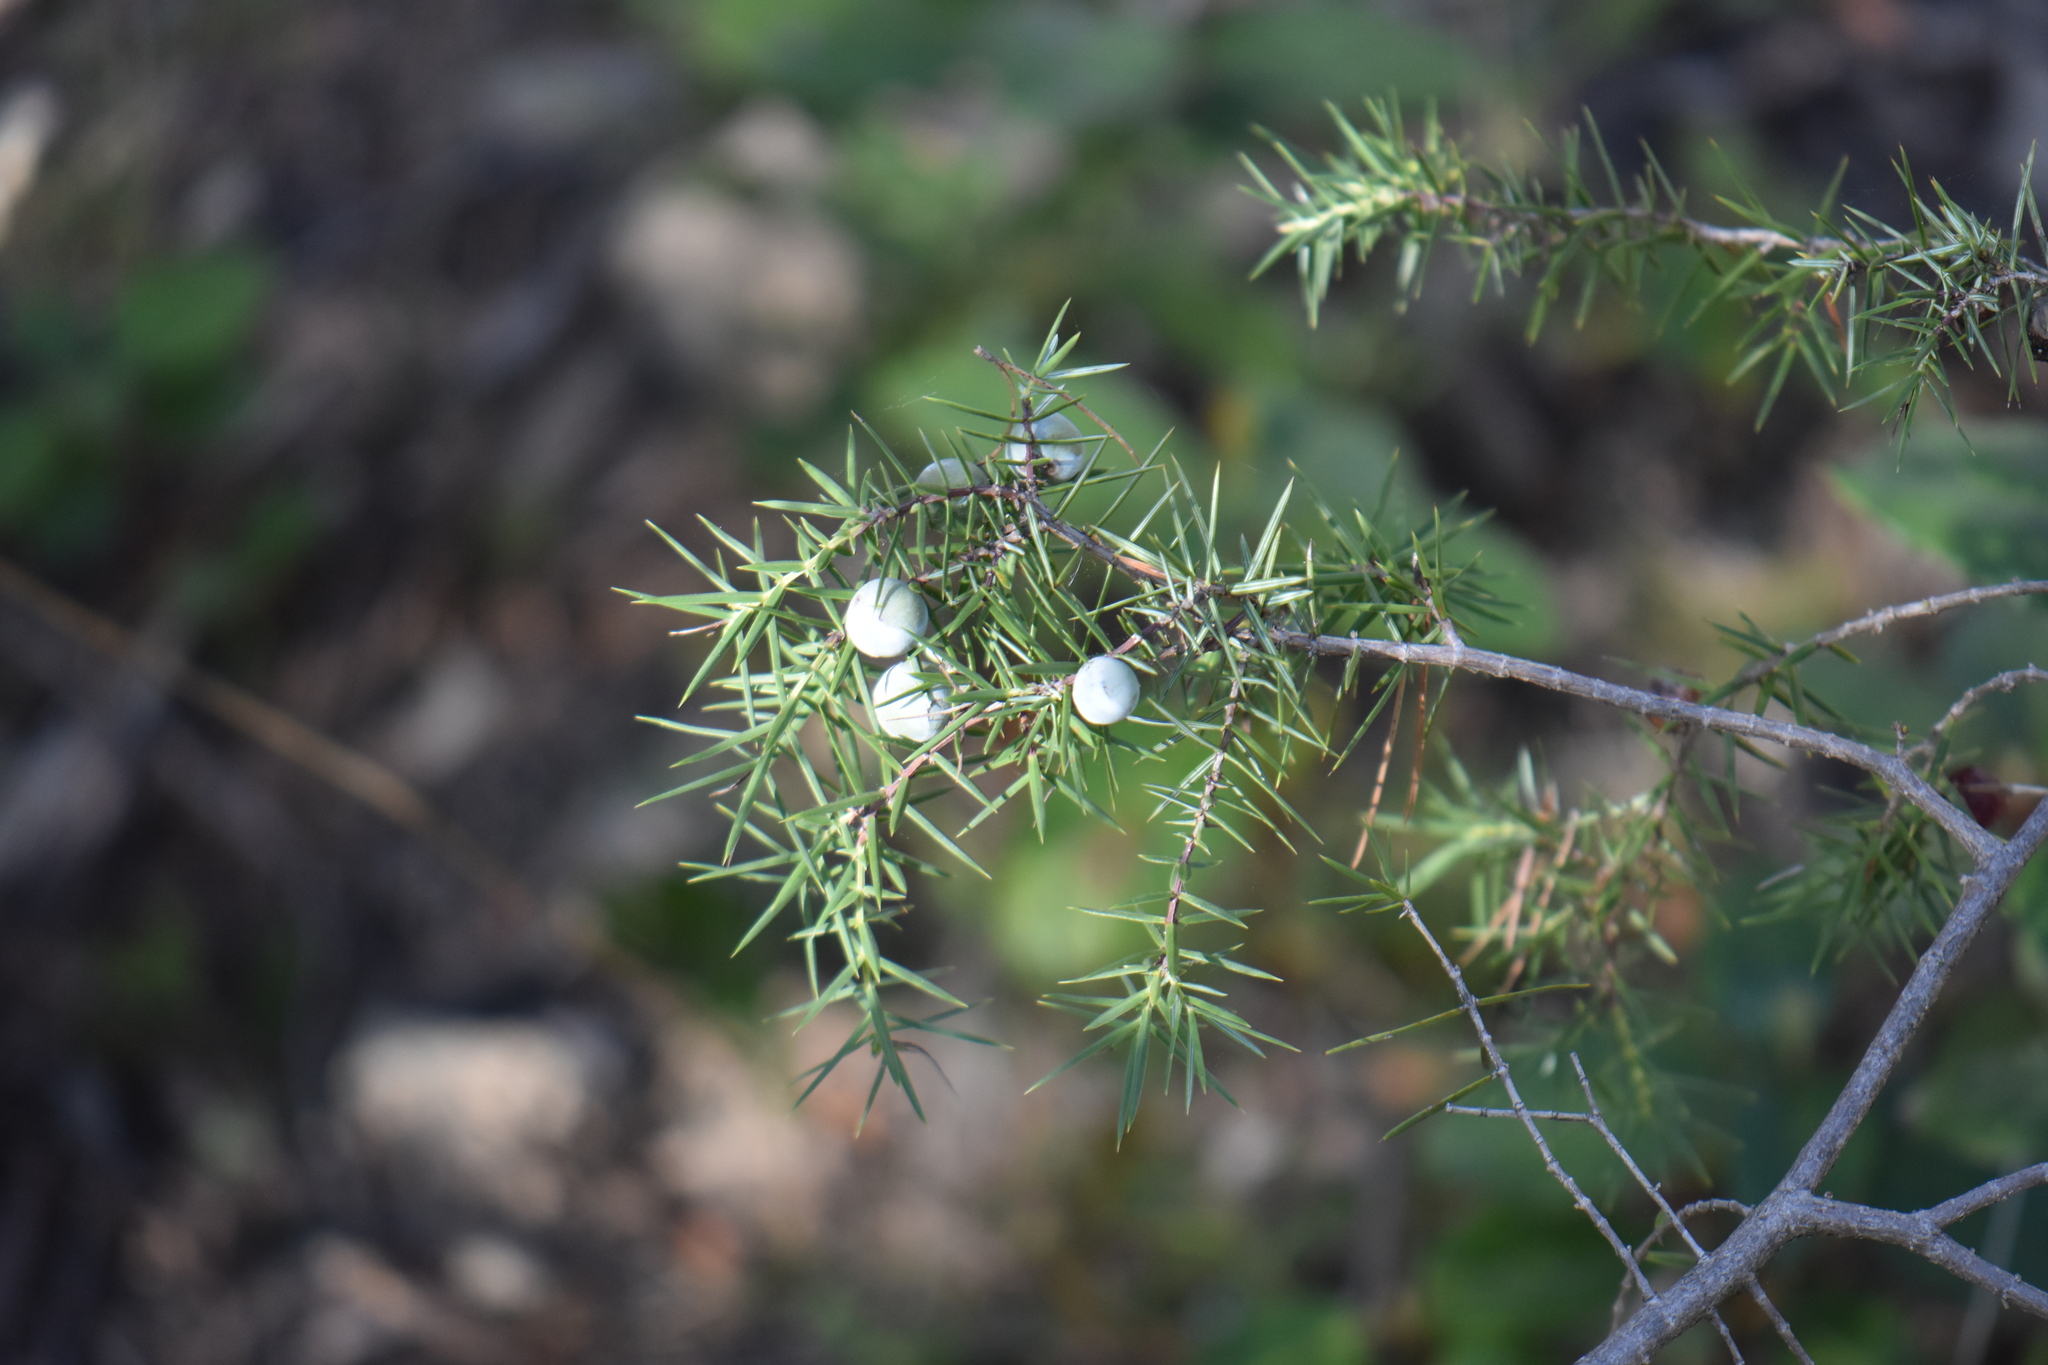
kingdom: Plantae
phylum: Tracheophyta
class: Pinopsida
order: Pinales
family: Cupressaceae
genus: Juniperus
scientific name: Juniperus oxycedrus
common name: Prickly juniper
